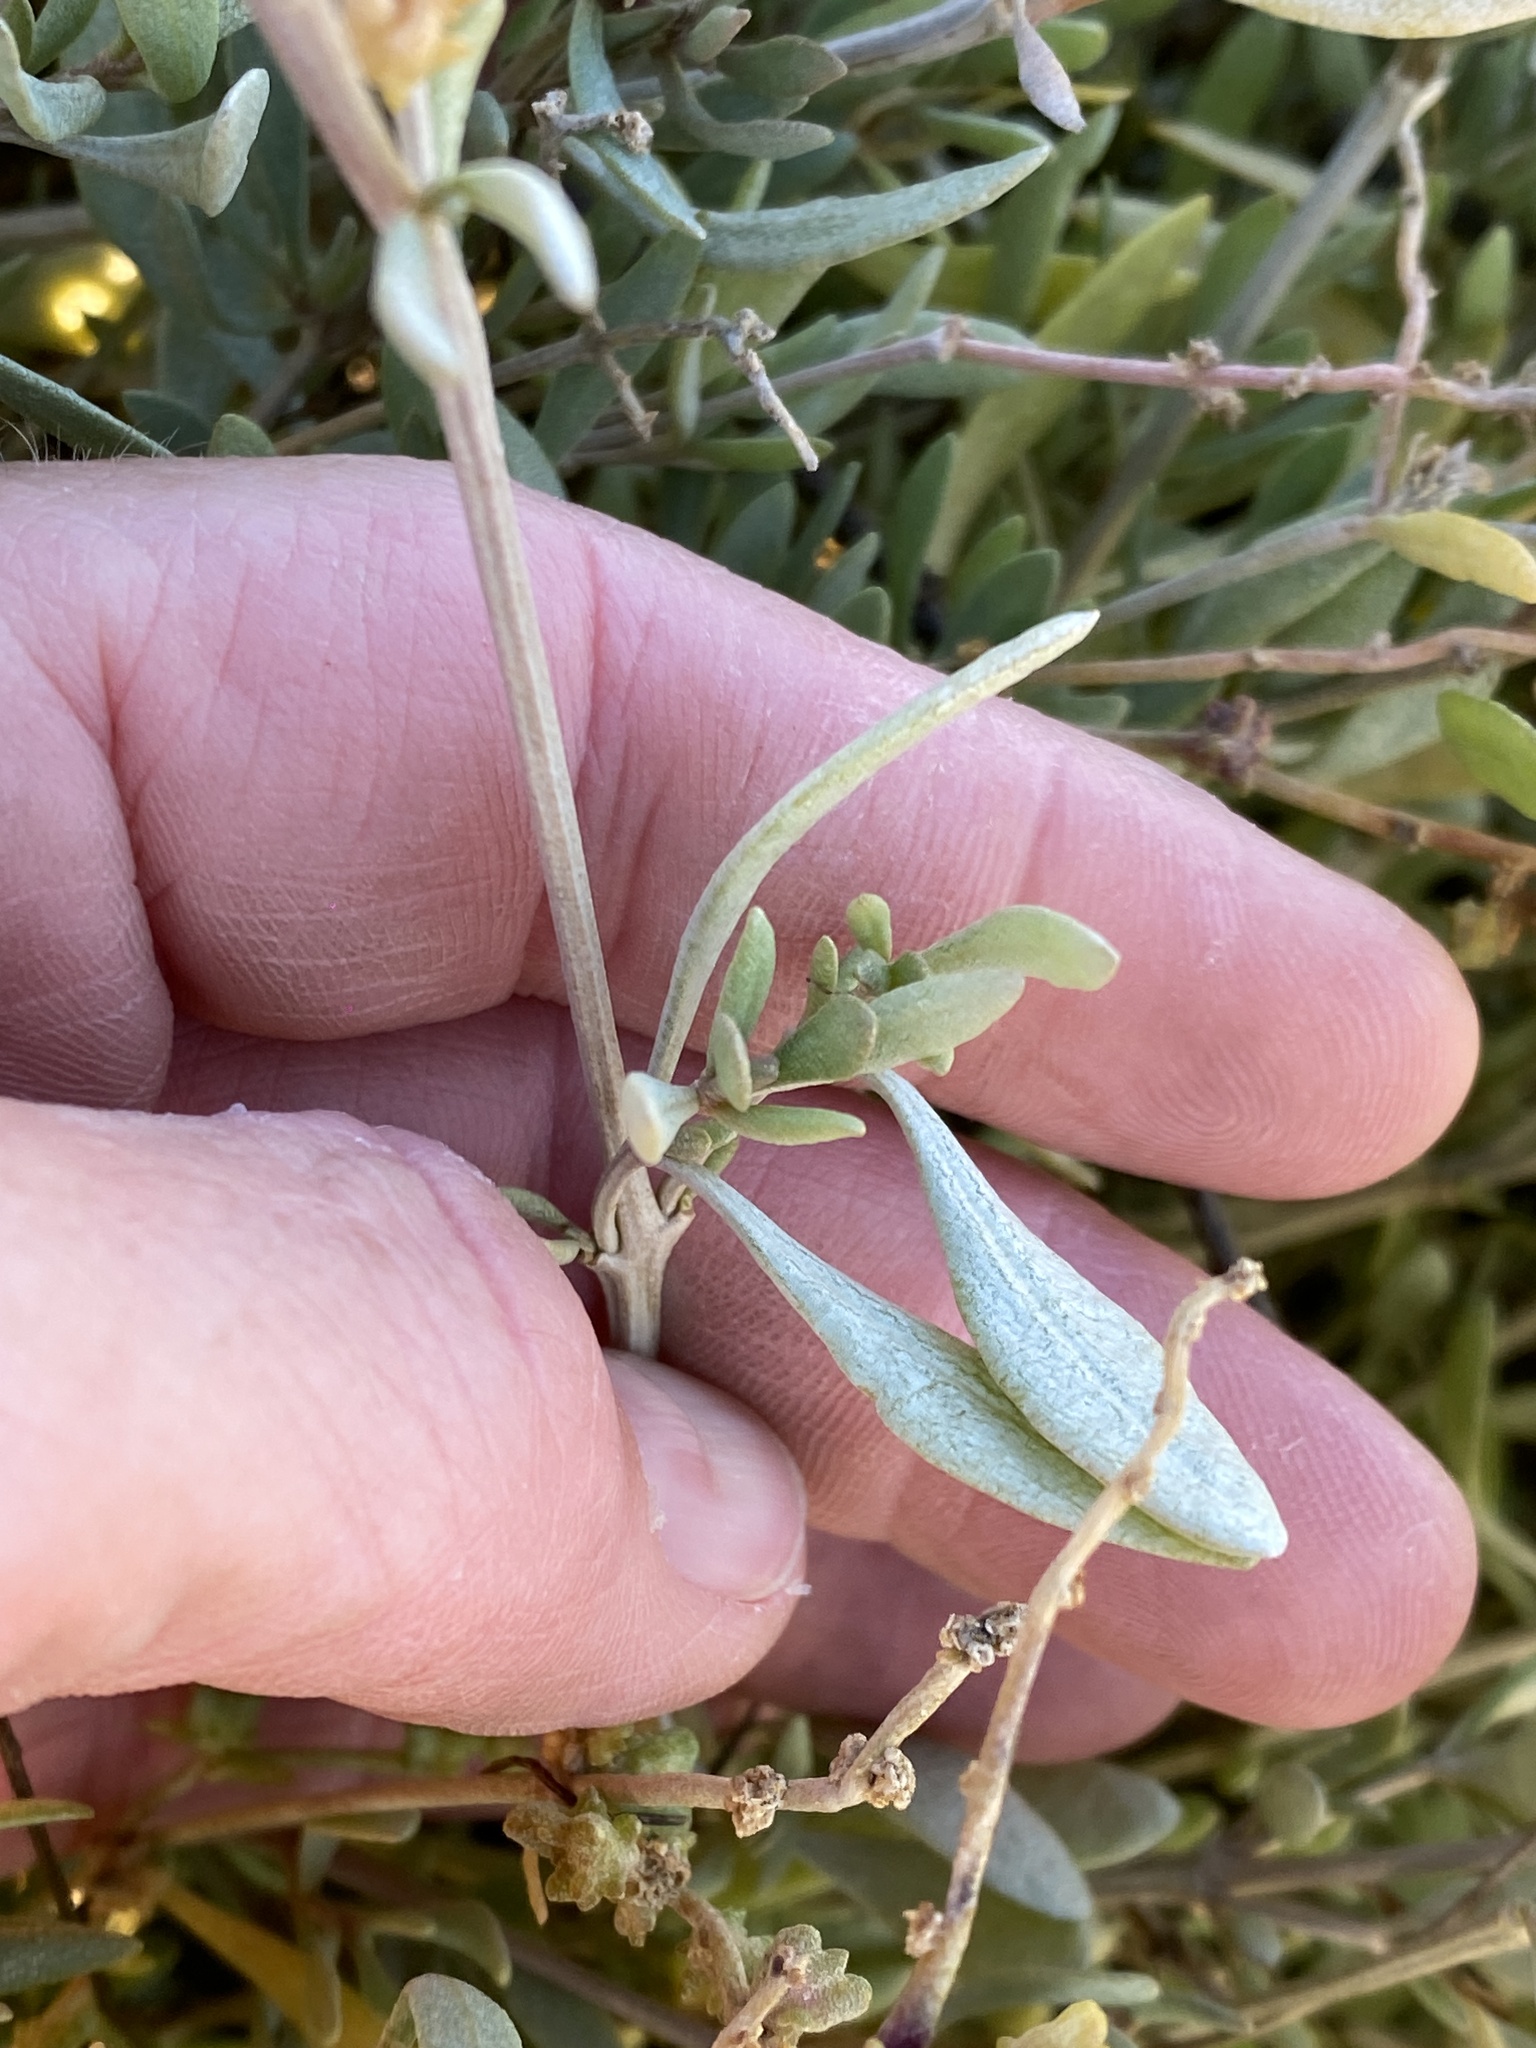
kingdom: Plantae
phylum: Tracheophyta
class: Magnoliopsida
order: Caryophyllales
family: Amaranthaceae
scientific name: Amaranthaceae
